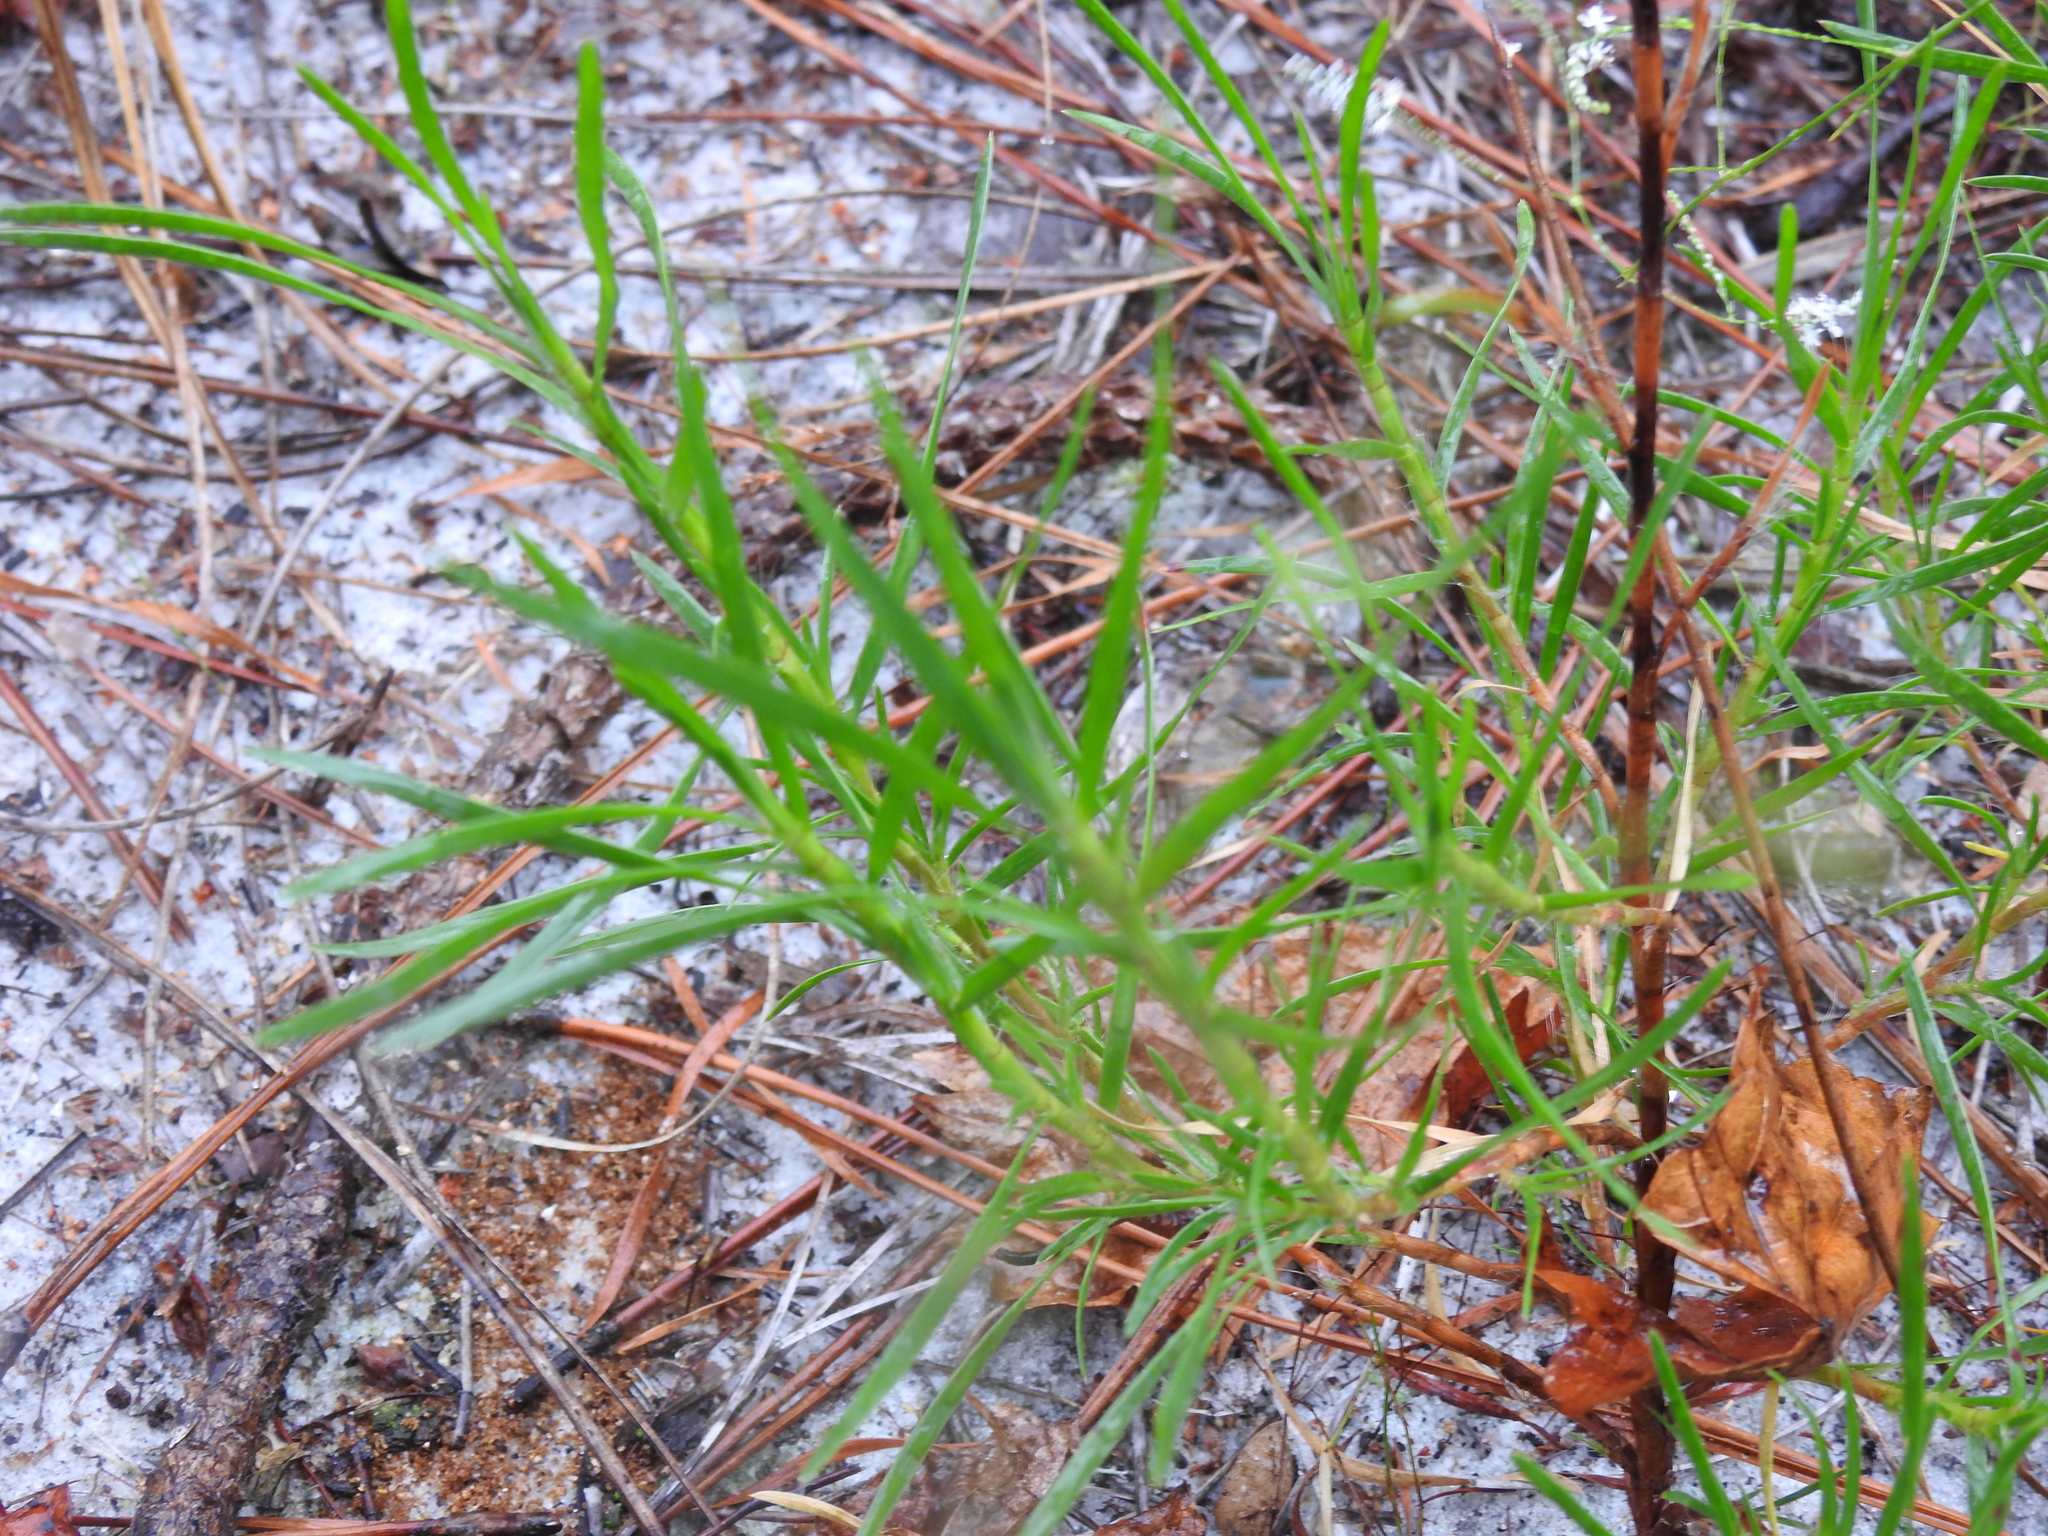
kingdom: Plantae
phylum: Tracheophyta
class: Magnoliopsida
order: Caryophyllales
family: Polygonaceae
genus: Polygonella
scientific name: Polygonella robusta
